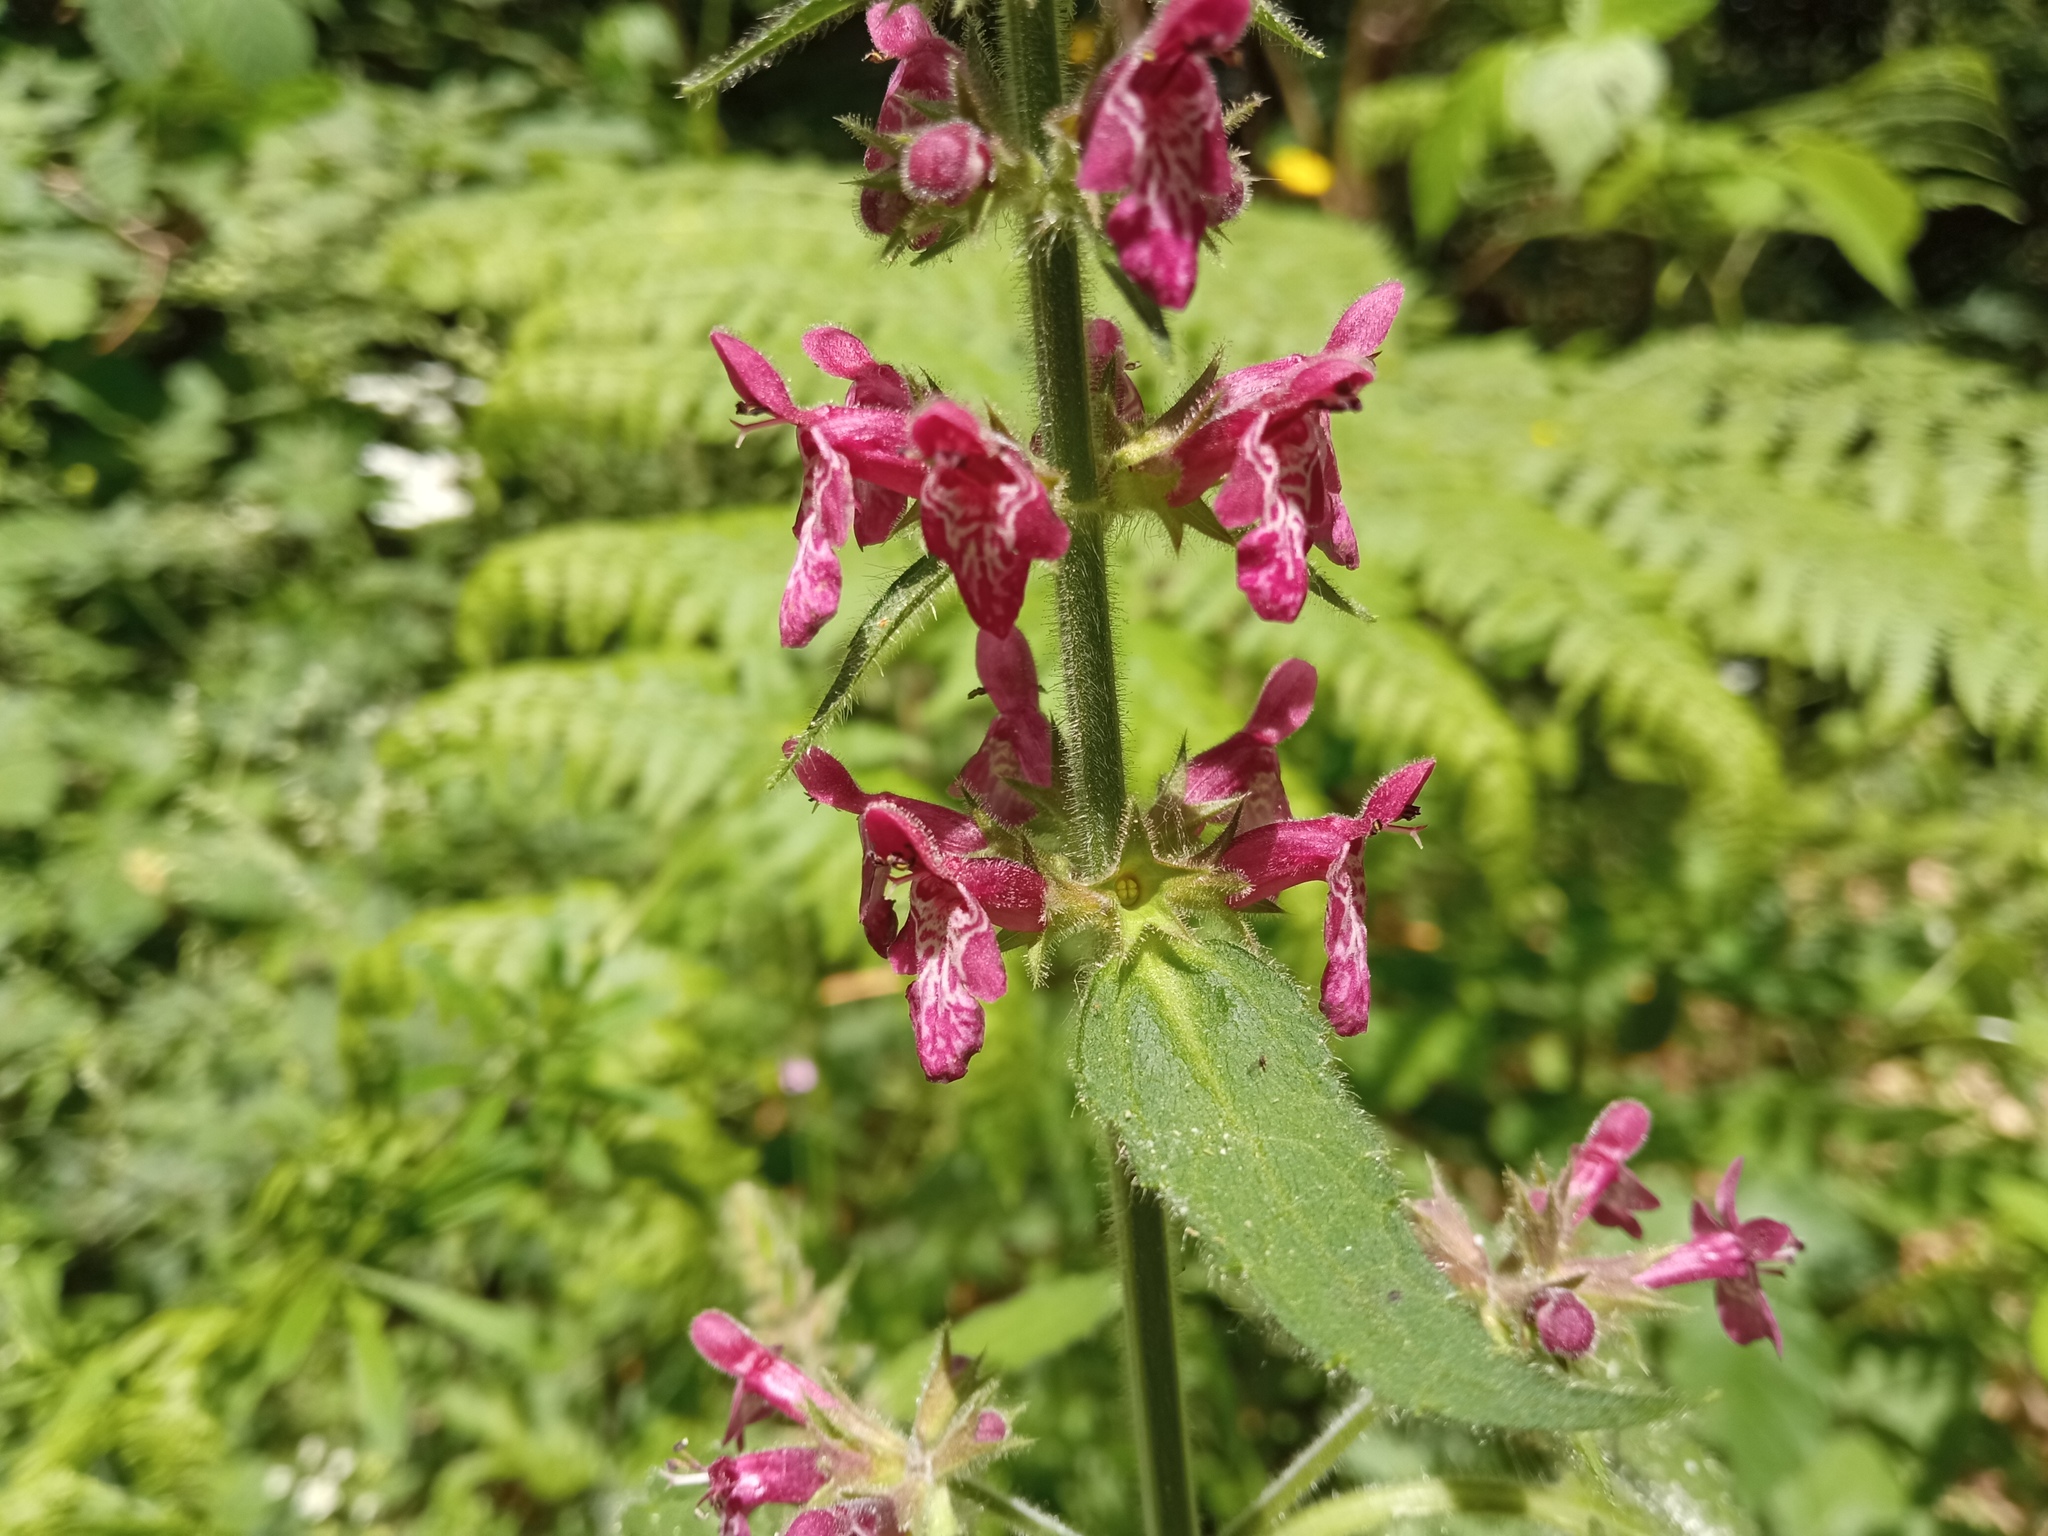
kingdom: Plantae
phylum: Tracheophyta
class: Magnoliopsida
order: Lamiales
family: Lamiaceae
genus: Stachys
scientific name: Stachys sylvatica
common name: Hedge woundwort
